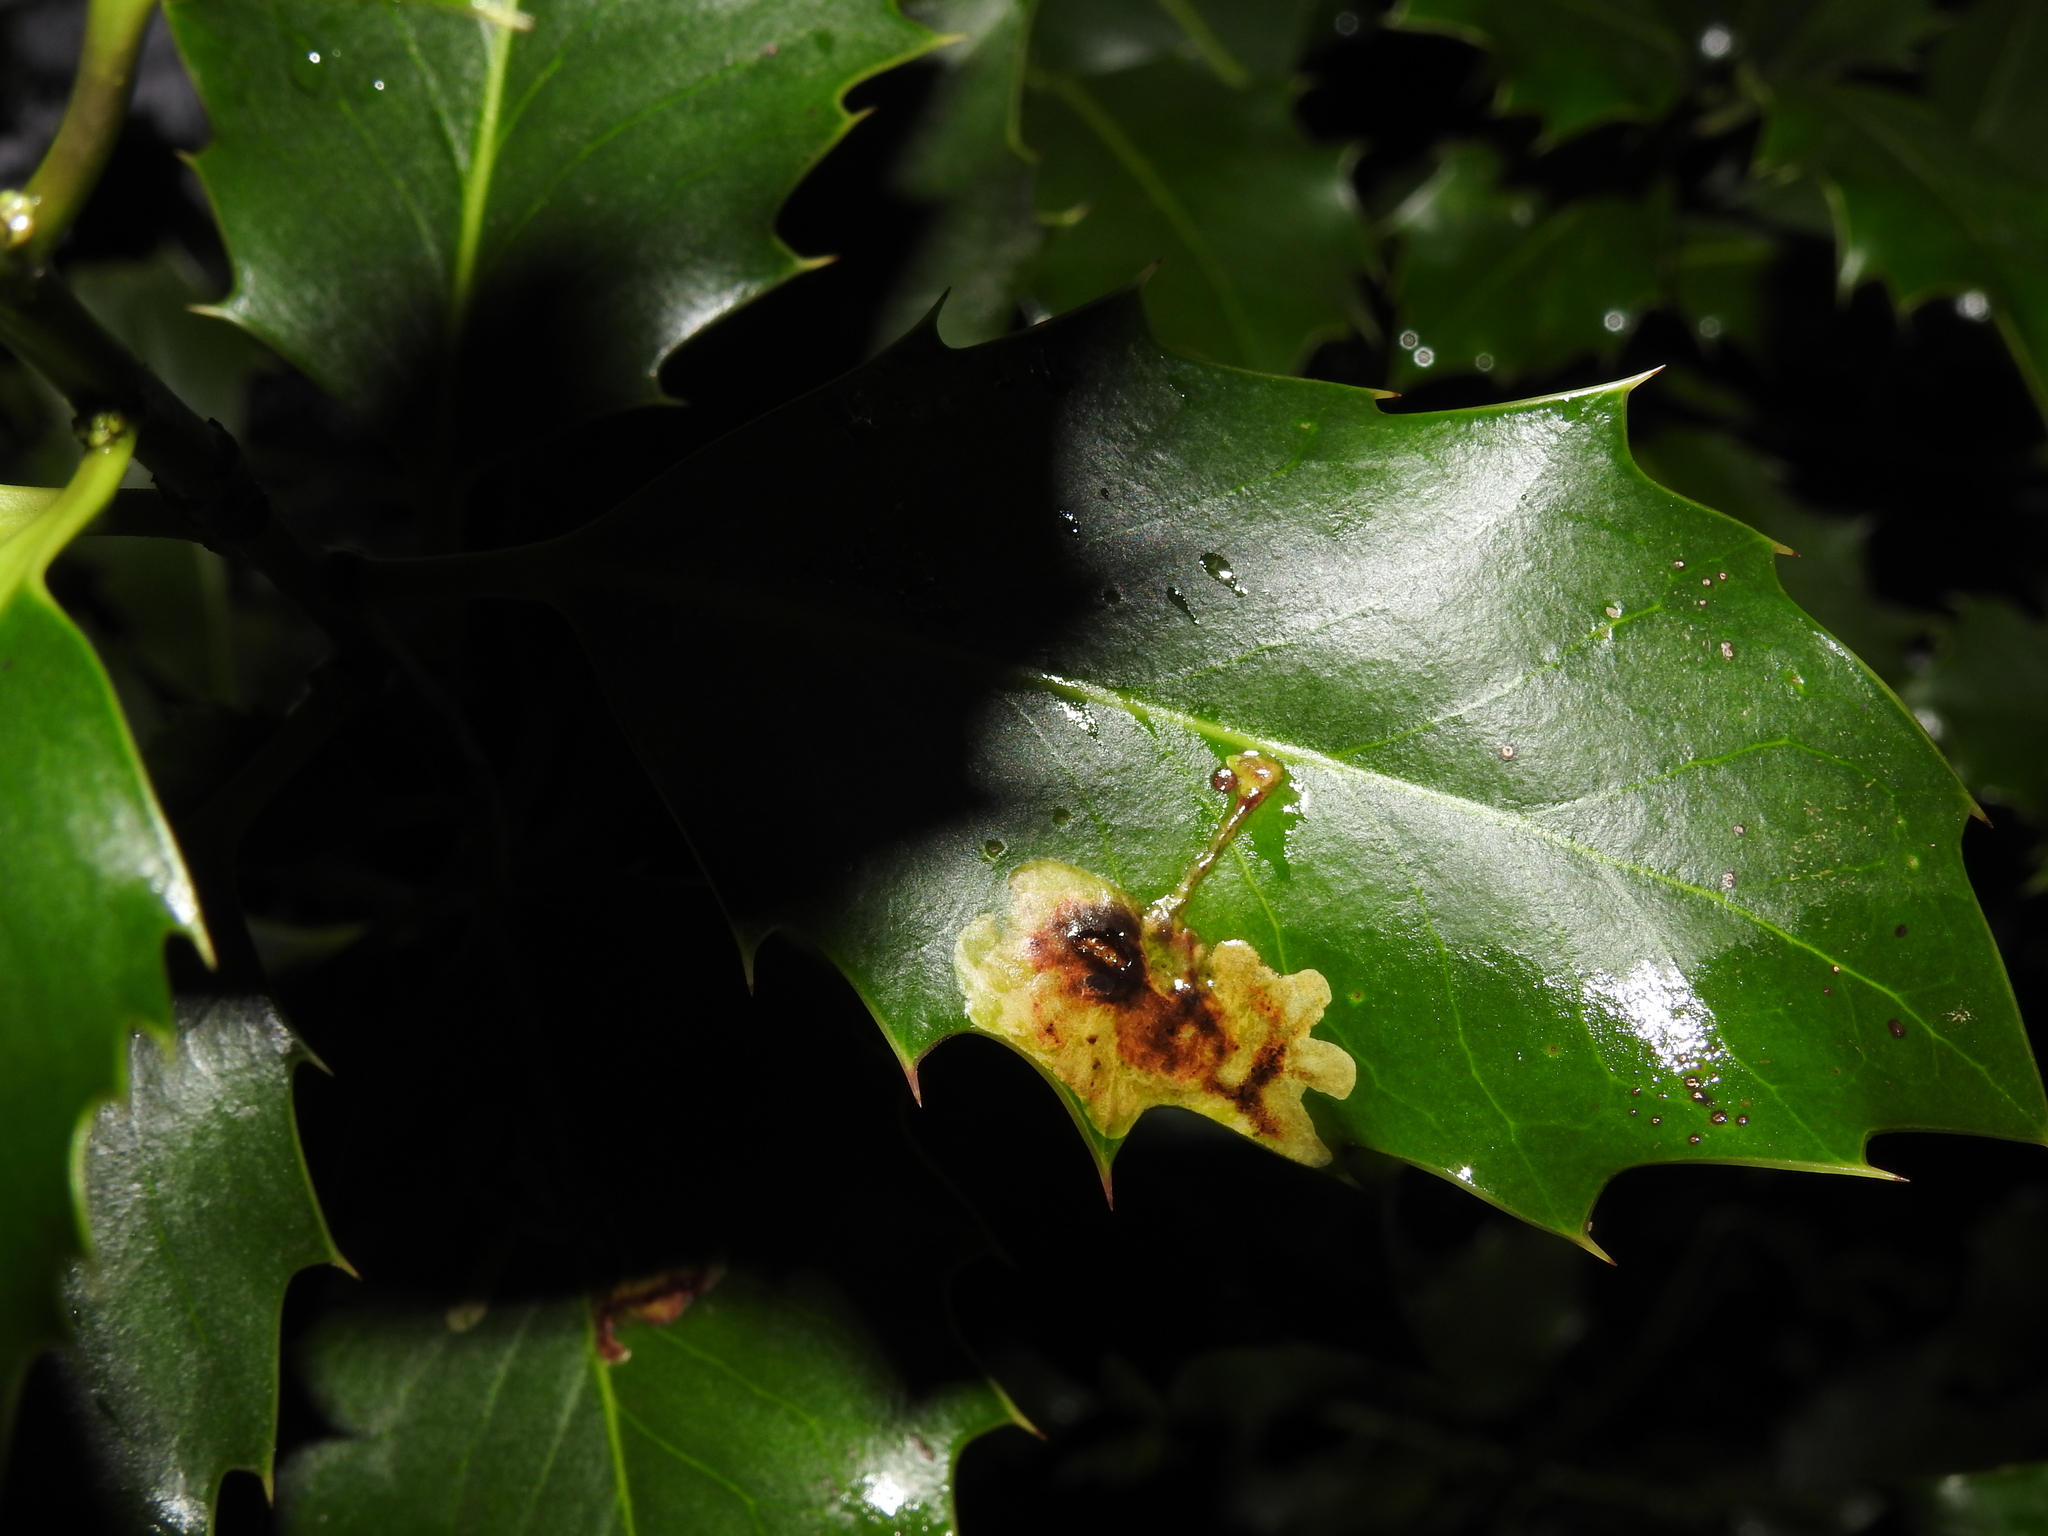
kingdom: Animalia
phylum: Arthropoda
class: Insecta
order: Diptera
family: Agromyzidae
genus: Phytomyza
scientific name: Phytomyza ilicis
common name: Holly leafminer
